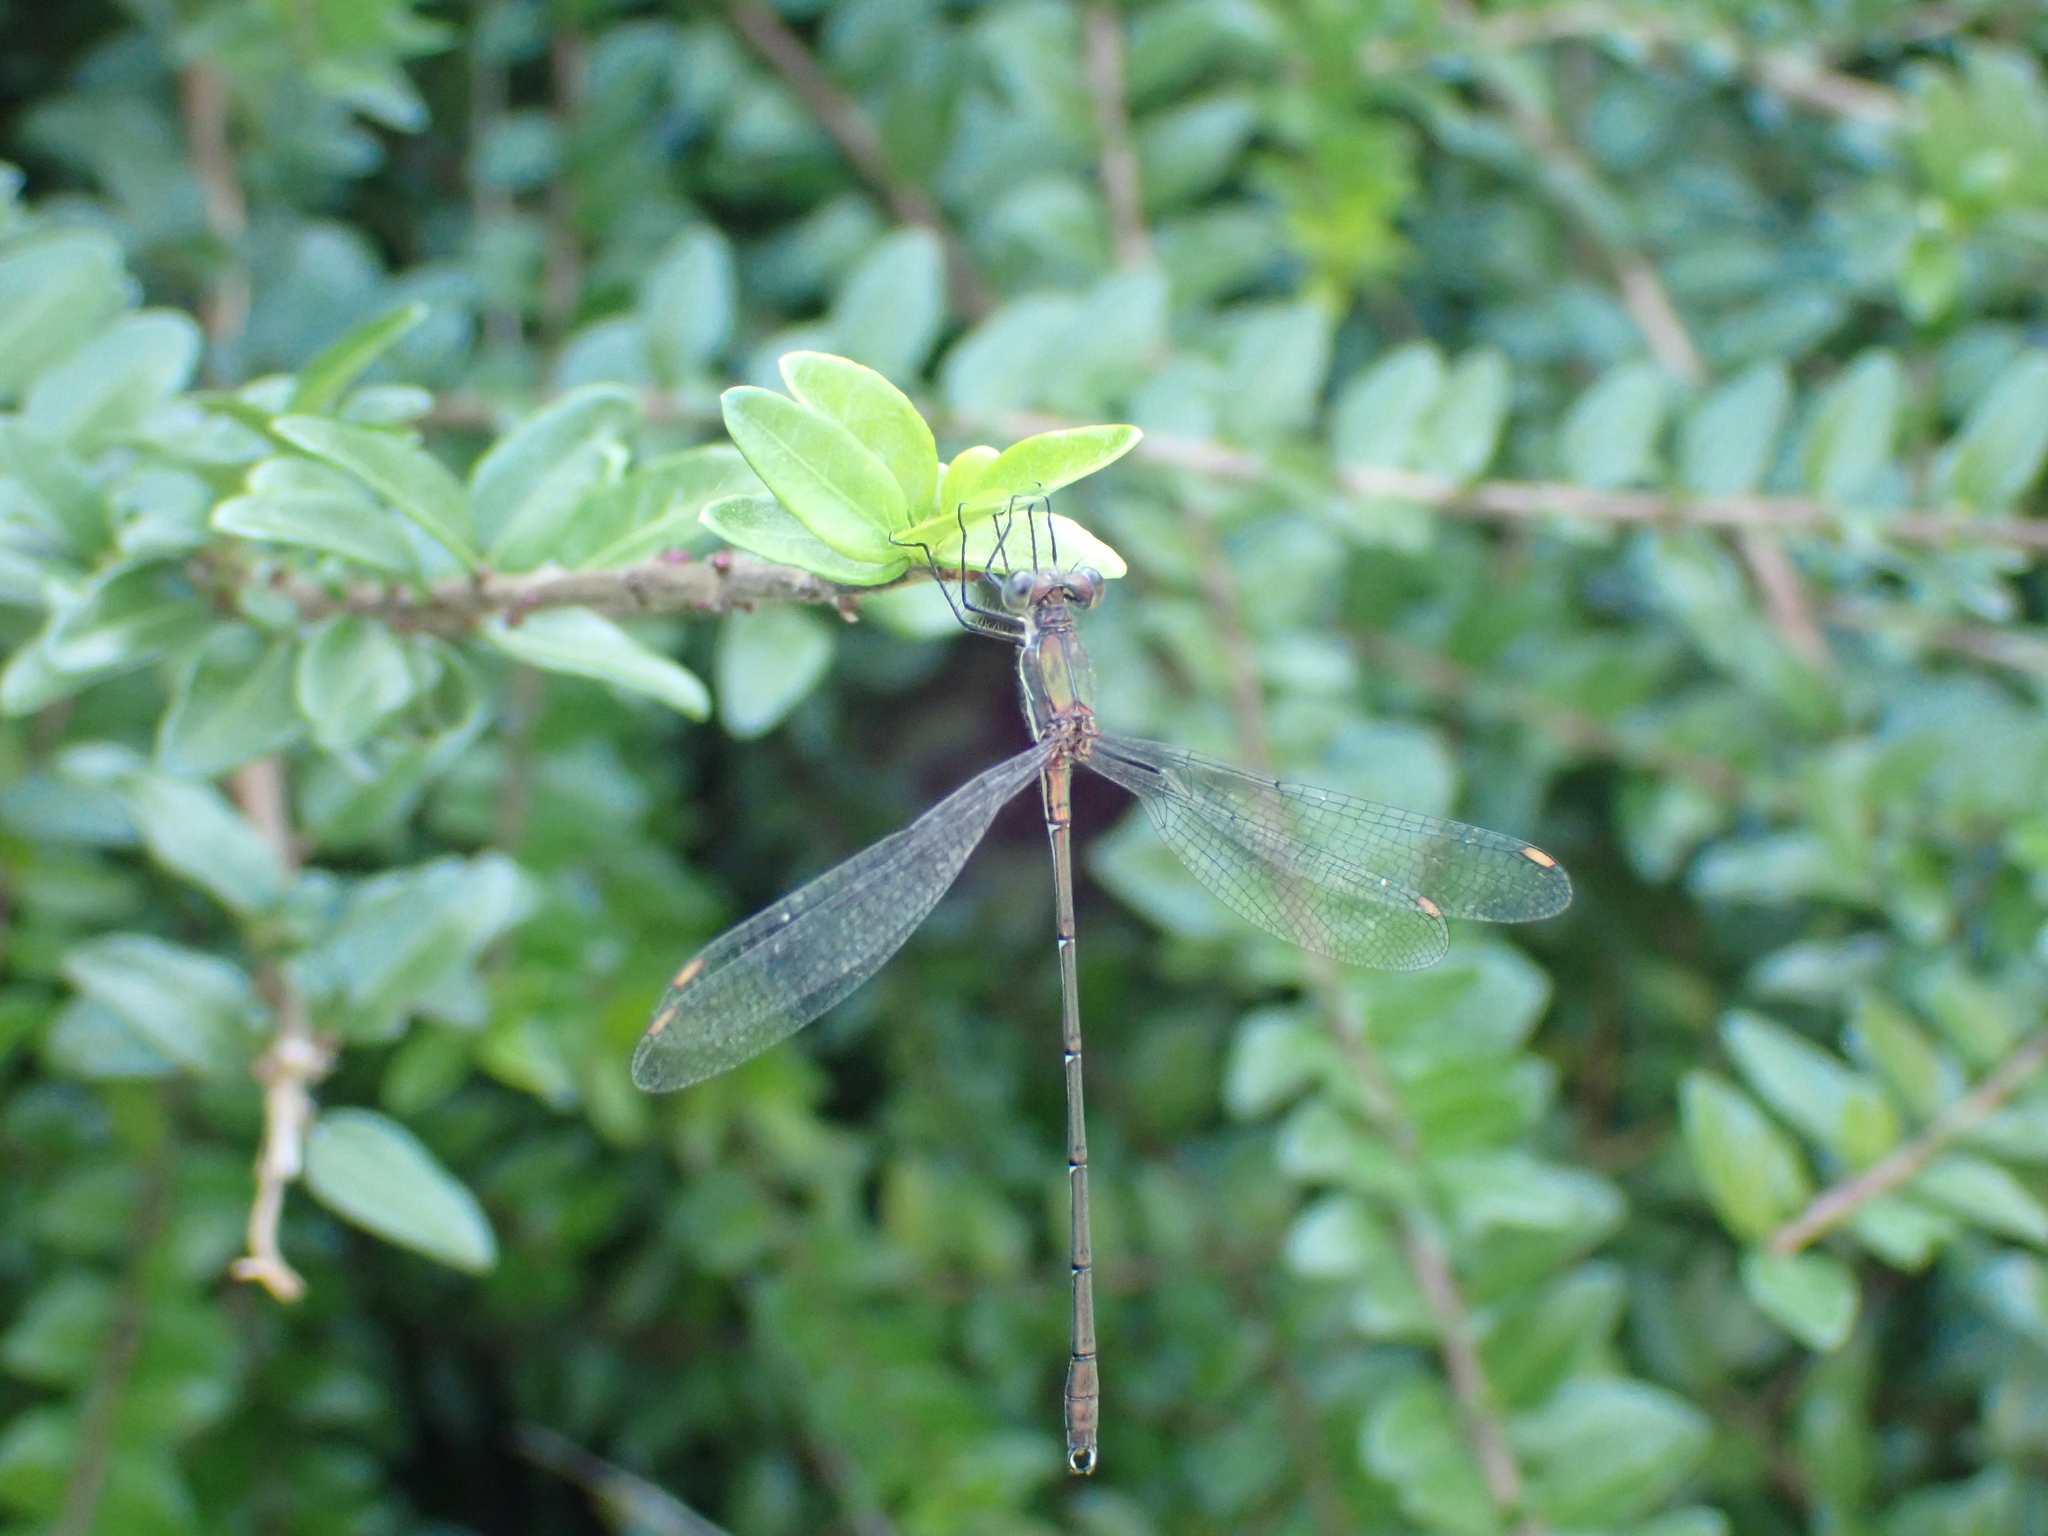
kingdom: Animalia
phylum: Arthropoda
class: Insecta
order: Odonata
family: Lestidae
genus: Chalcolestes
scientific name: Chalcolestes viridis
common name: Green emerald damselfly
